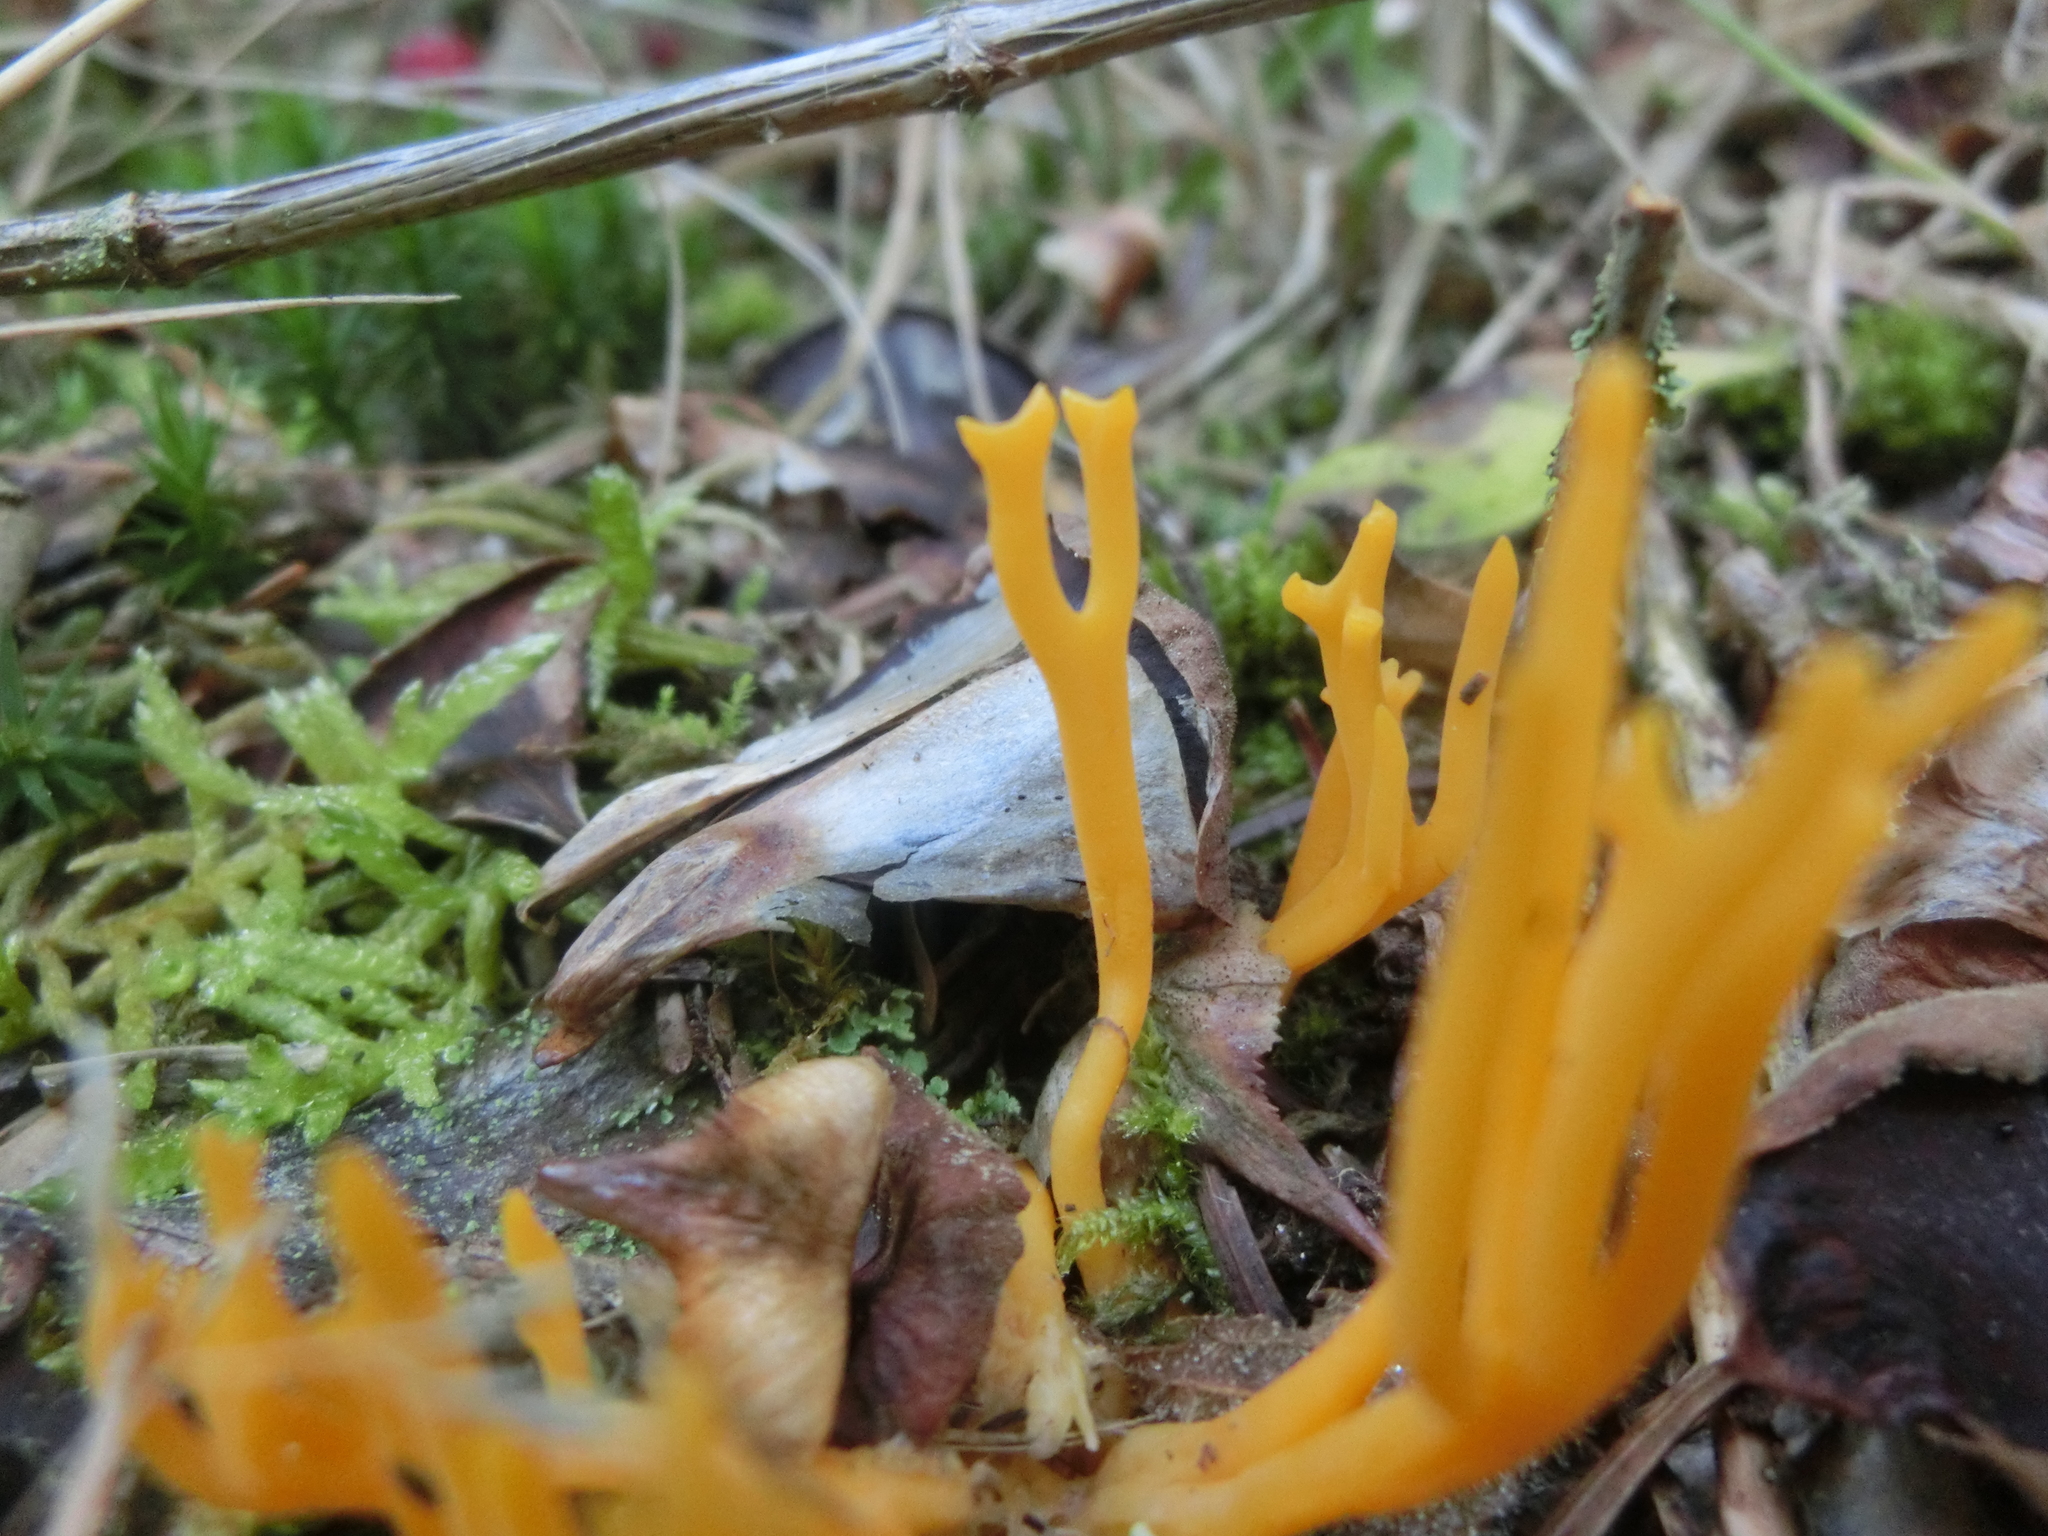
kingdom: Fungi
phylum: Basidiomycota
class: Dacrymycetes
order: Dacrymycetales
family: Dacrymycetaceae
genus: Calocera
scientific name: Calocera viscosa
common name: Yellow stagshorn
